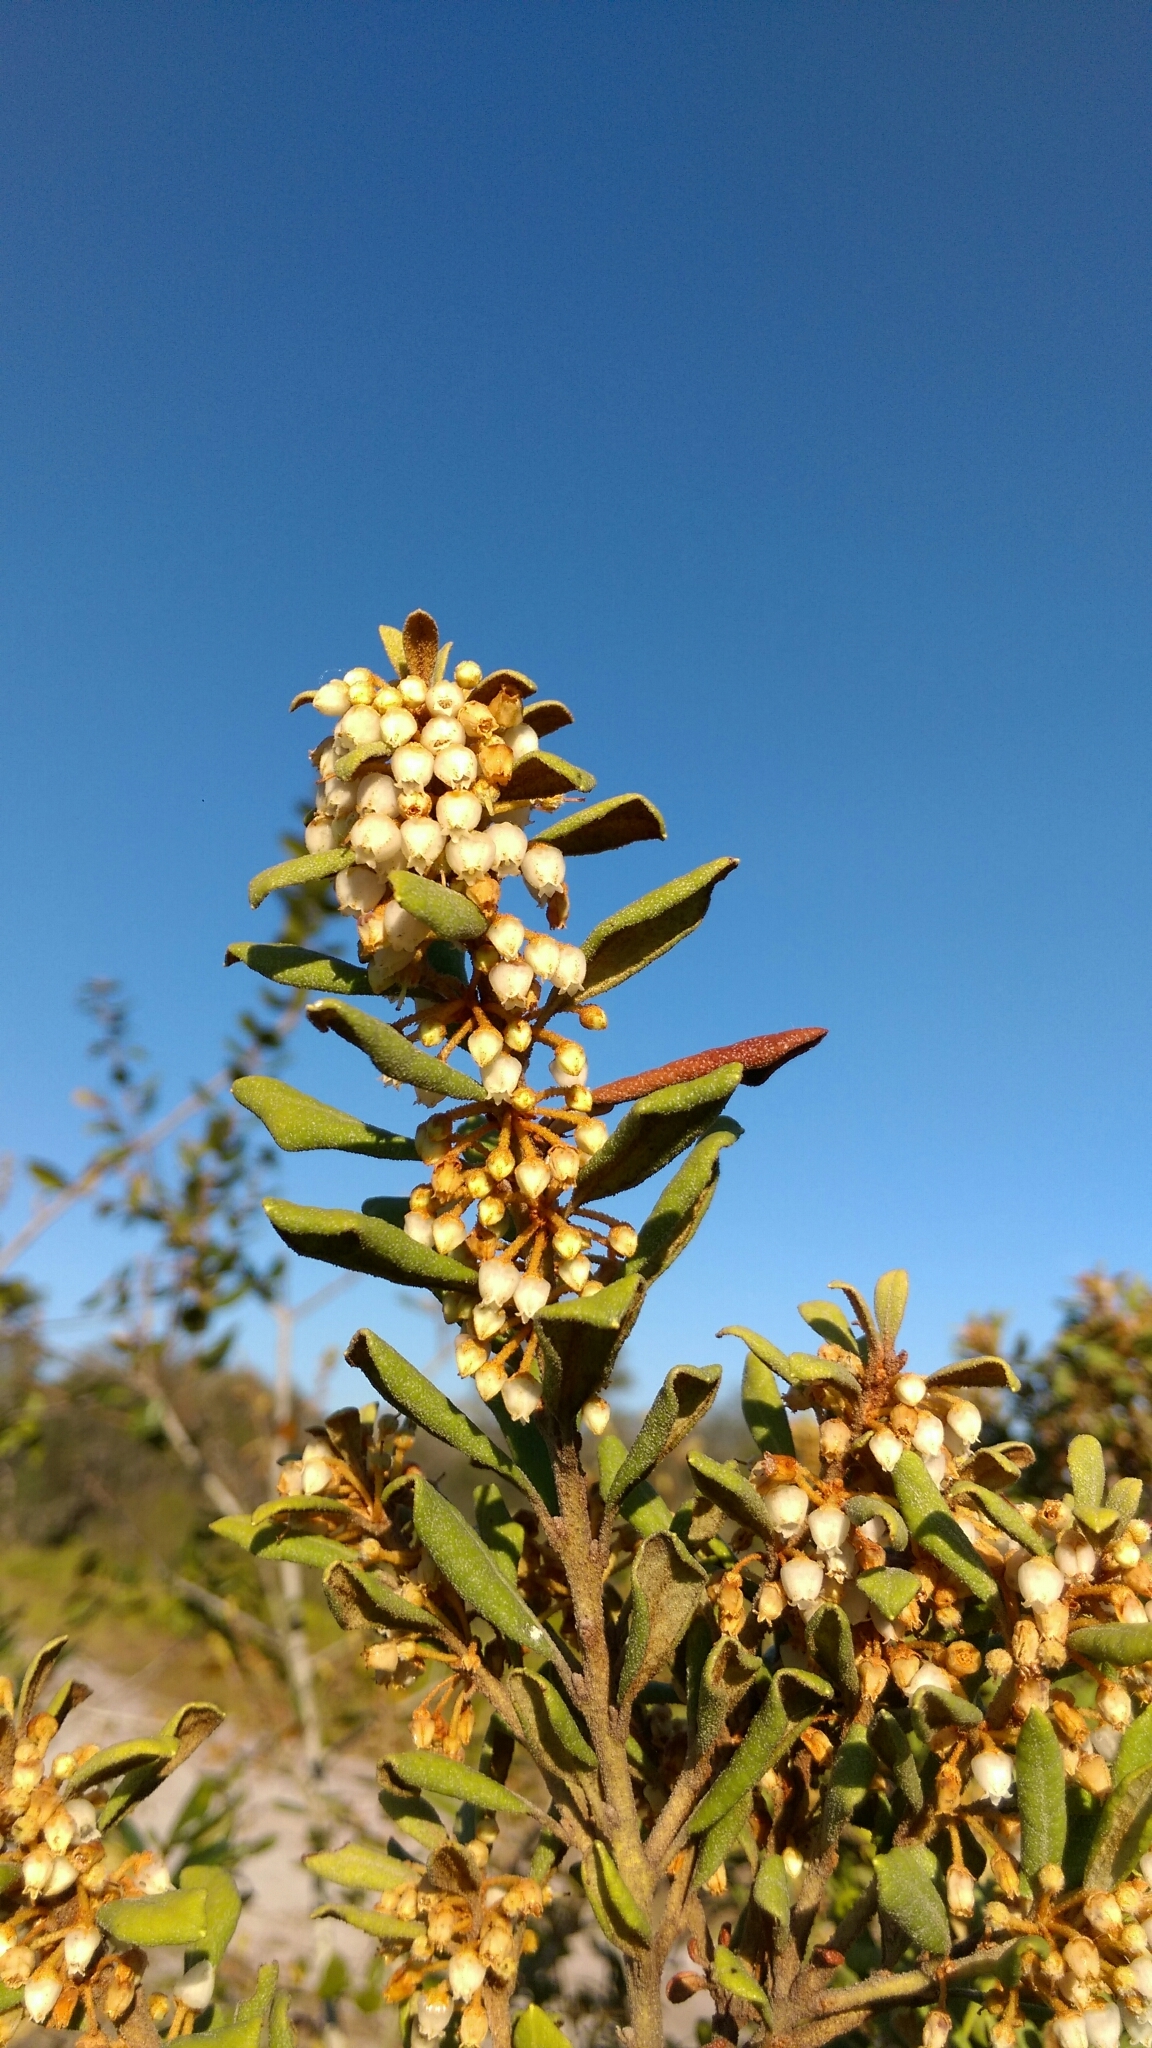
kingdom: Plantae
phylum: Tracheophyta
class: Magnoliopsida
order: Ericales
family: Ericaceae
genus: Lyonia
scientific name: Lyonia ferruginea
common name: Rusty lyonia
